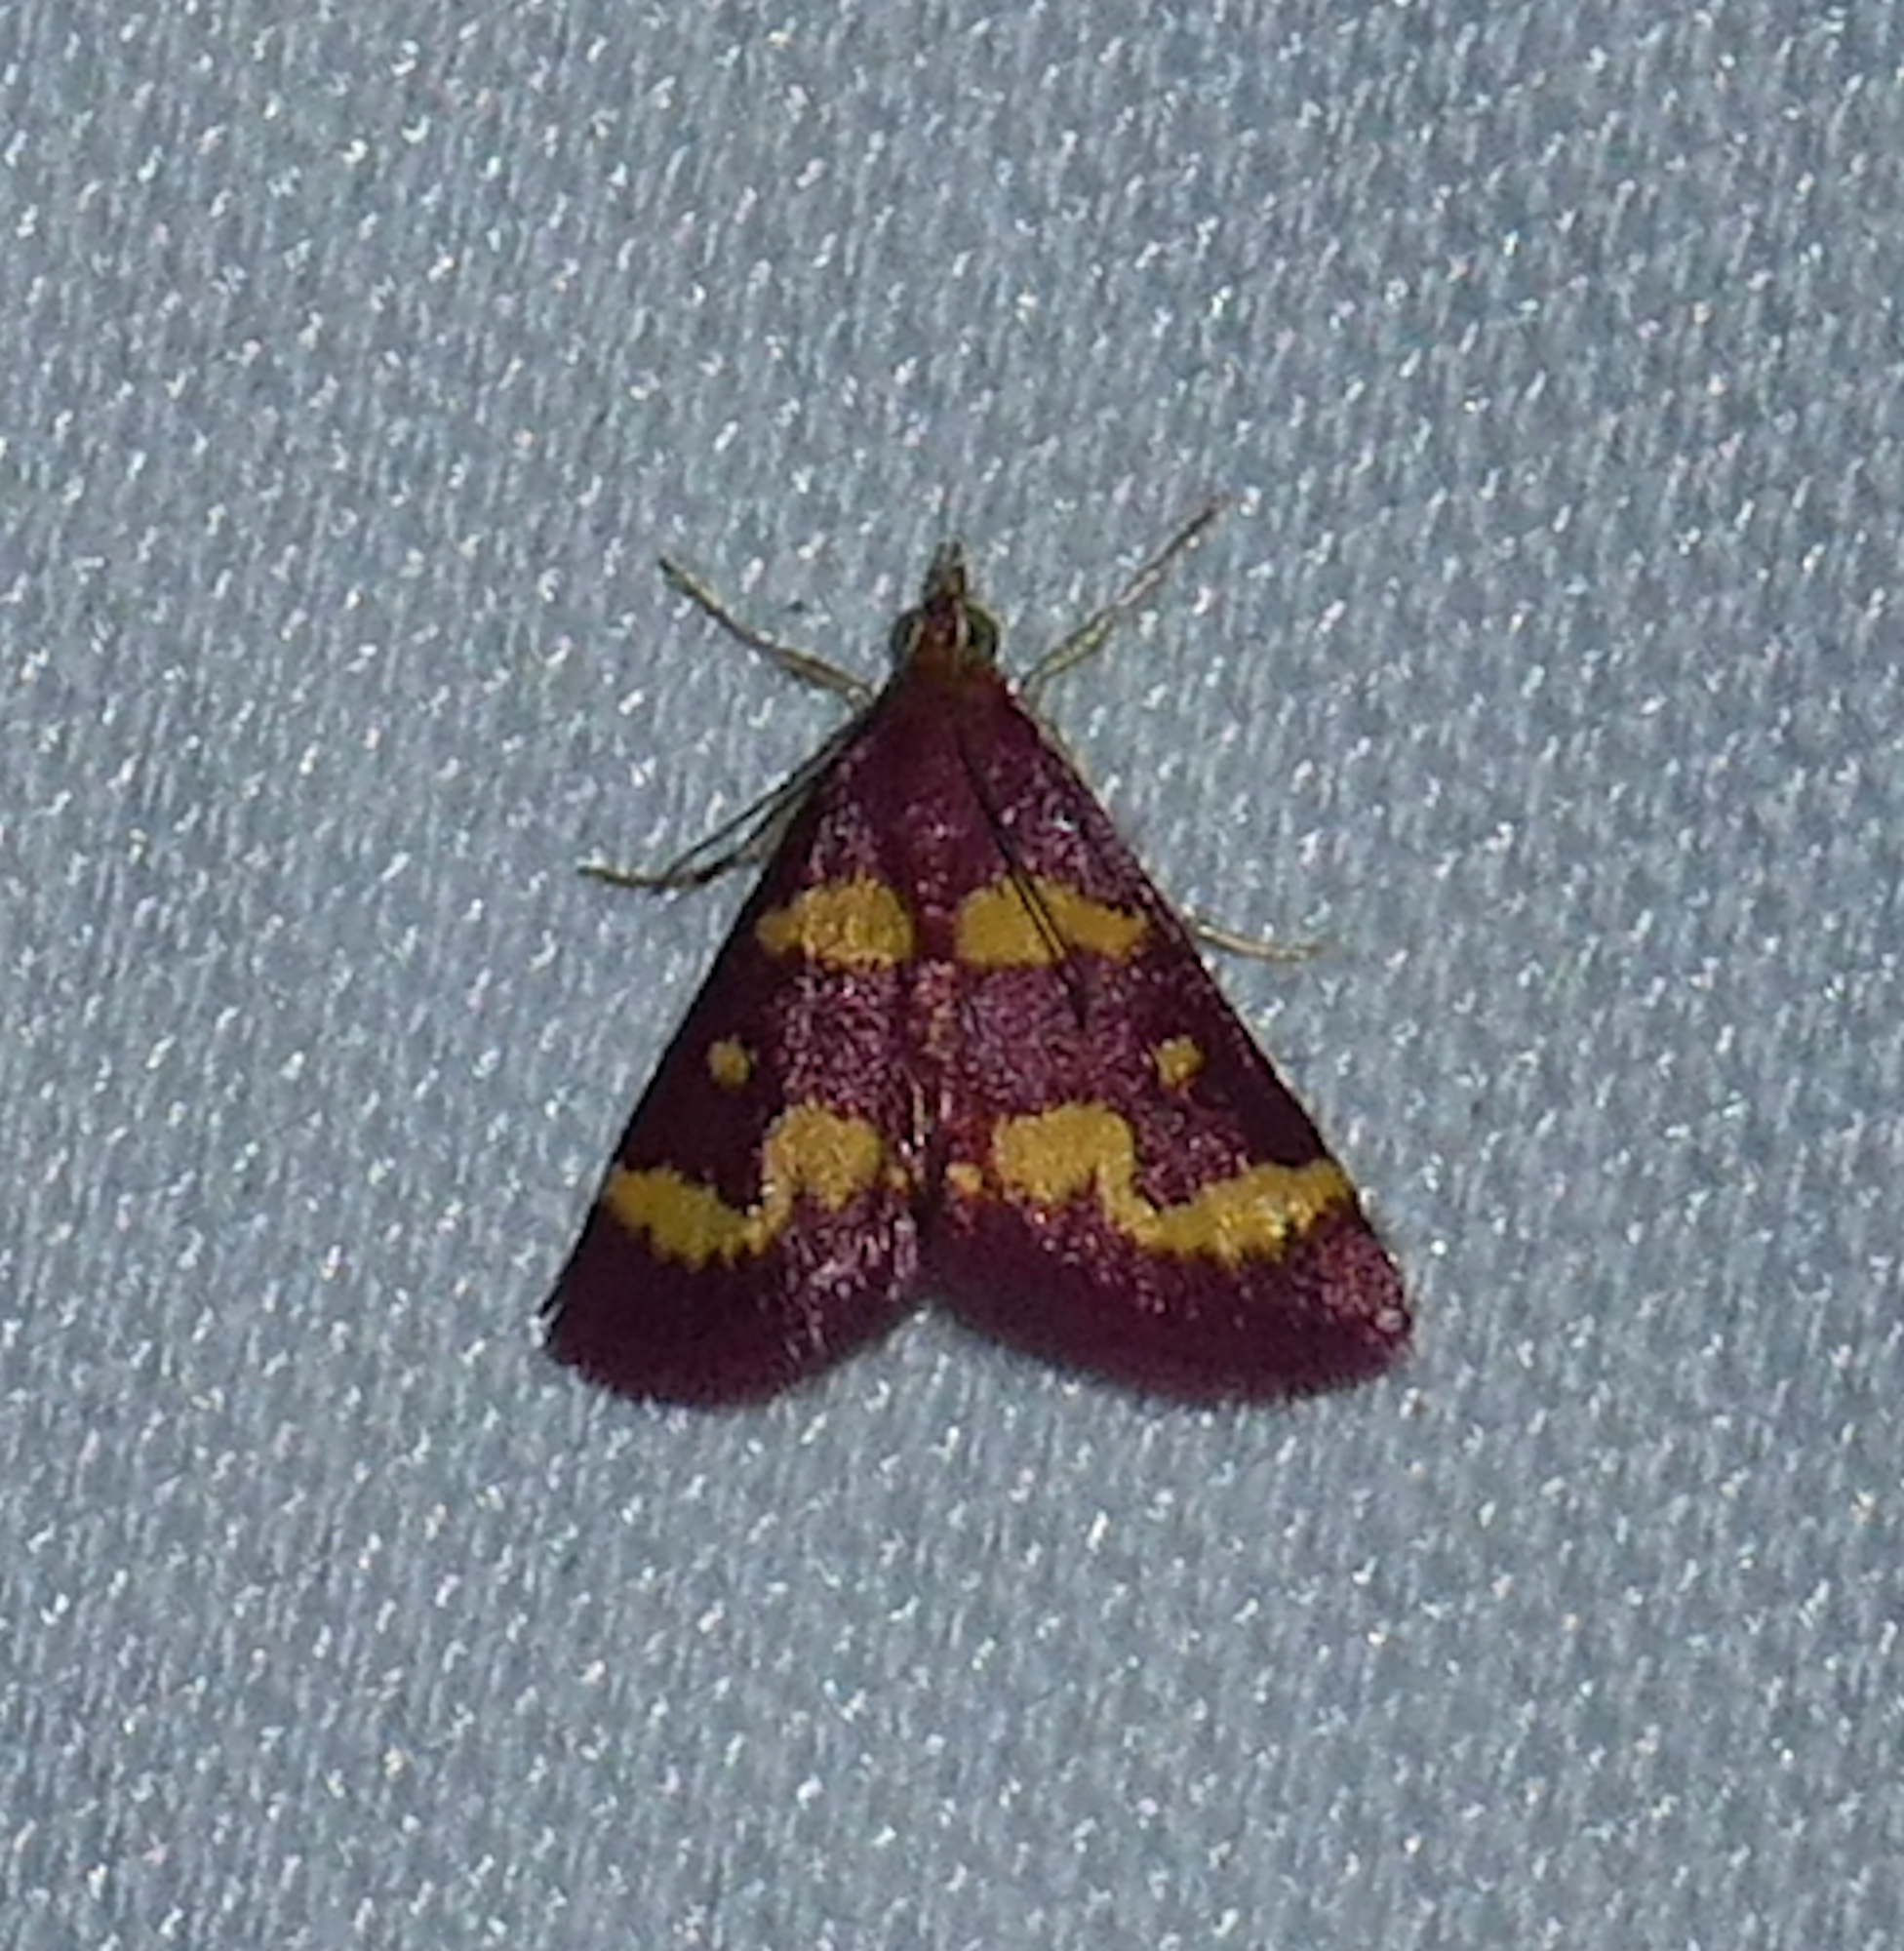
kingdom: Animalia
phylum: Arthropoda
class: Insecta
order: Lepidoptera
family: Crambidae
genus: Pyrausta
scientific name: Pyrausta tyralis
